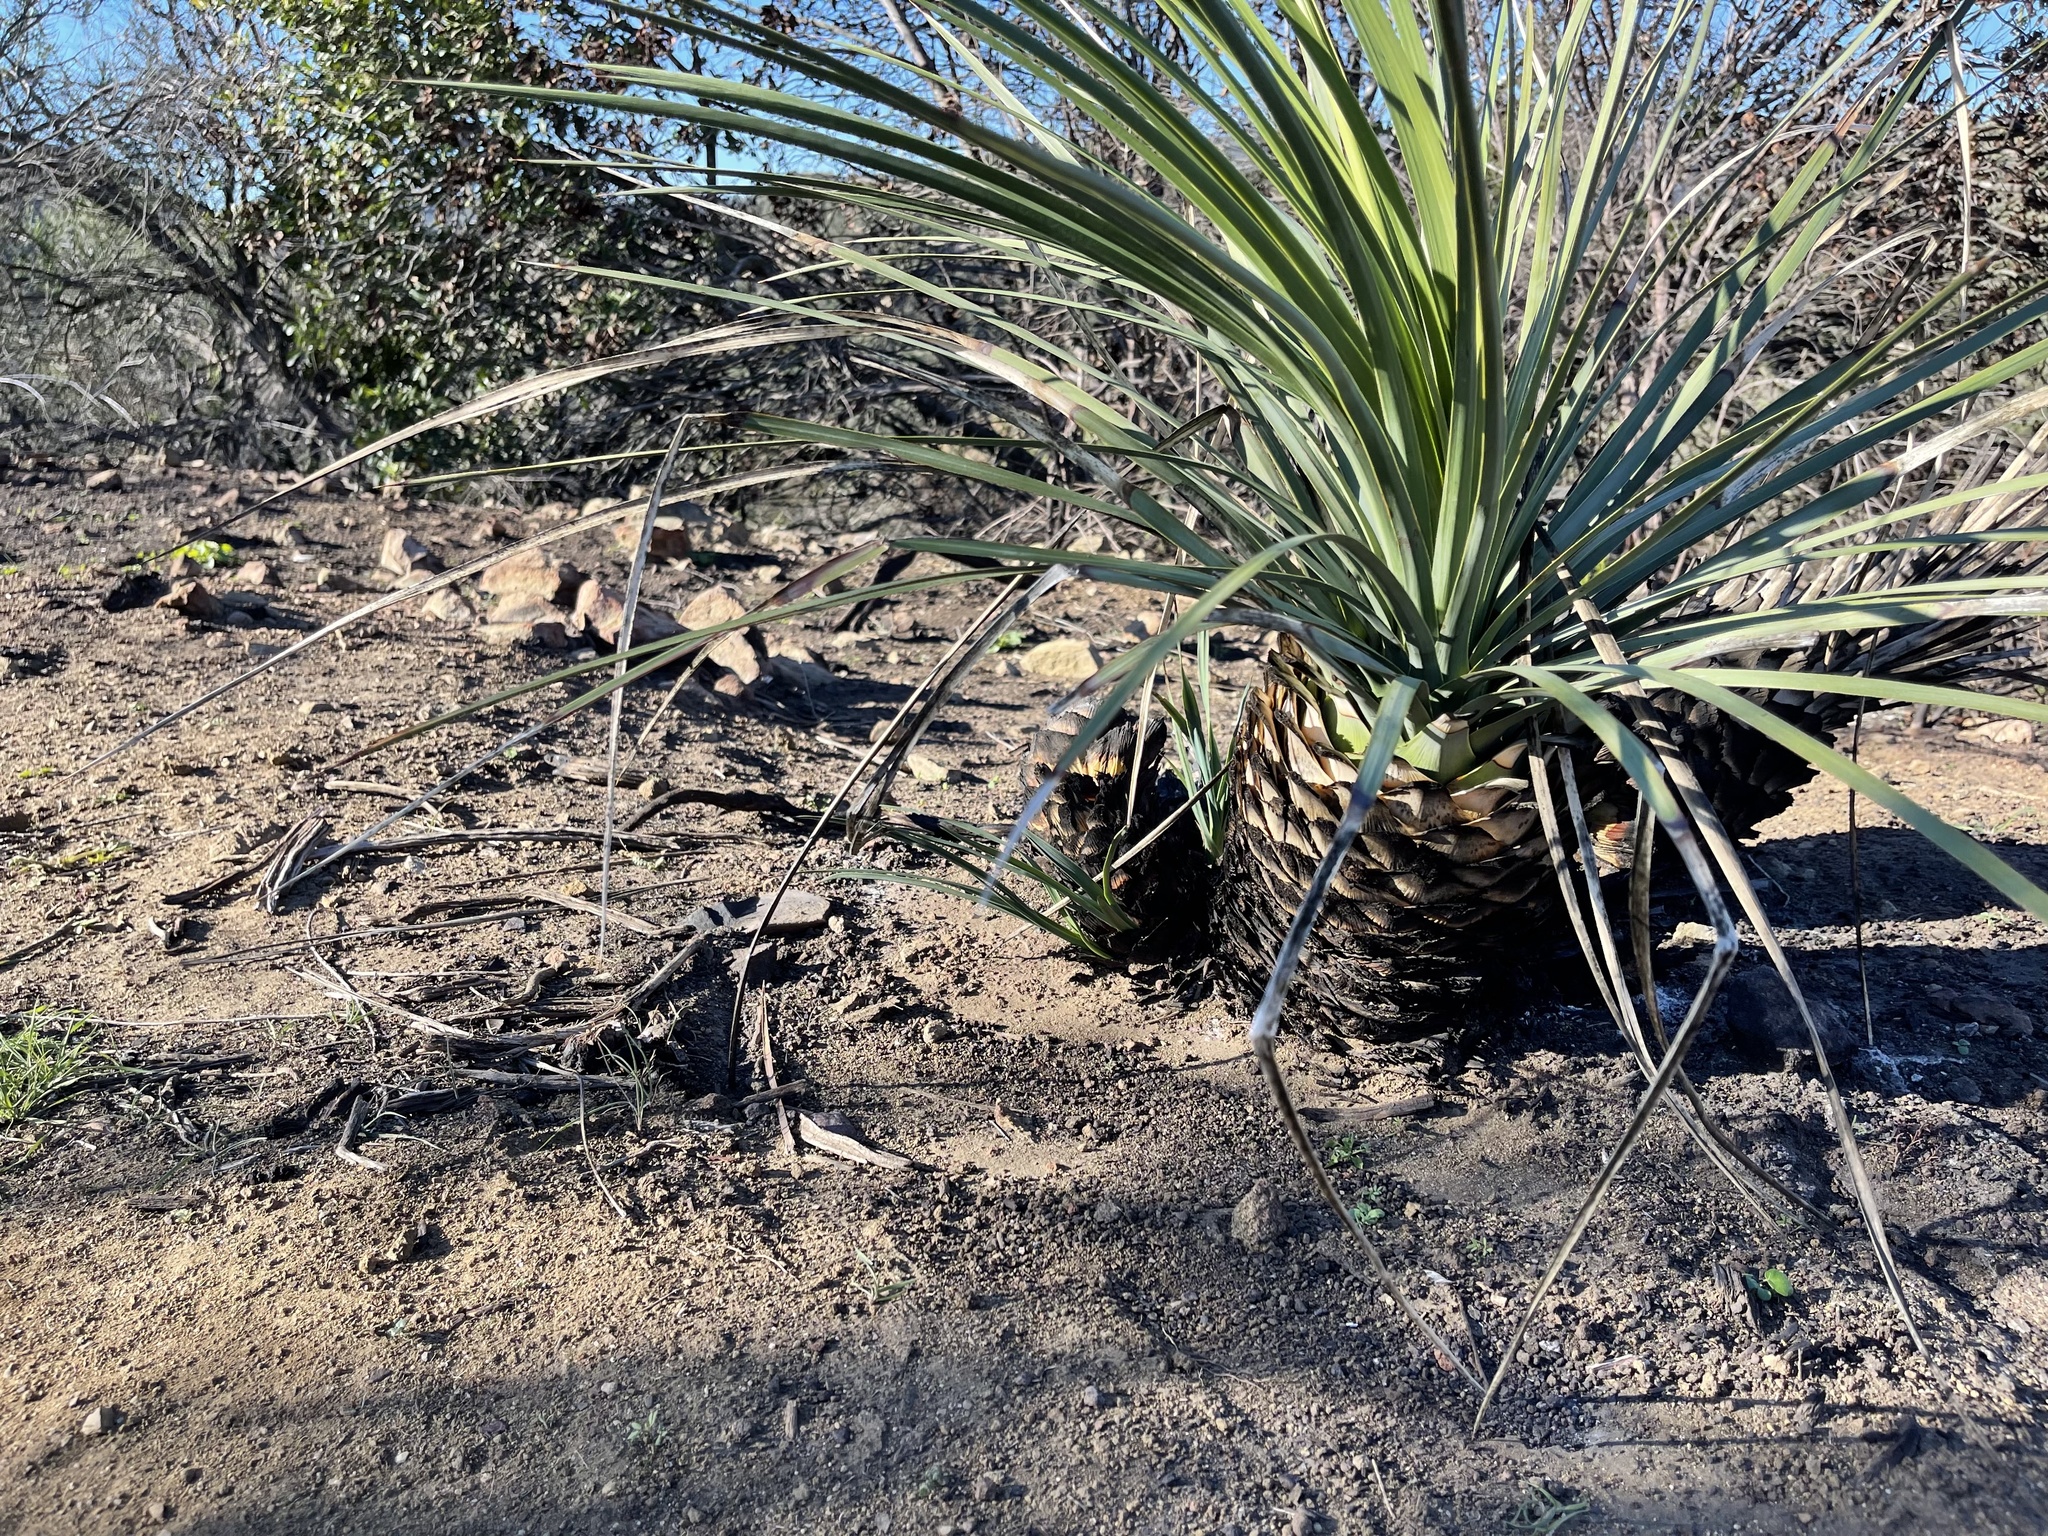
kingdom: Plantae
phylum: Tracheophyta
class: Liliopsida
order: Asparagales
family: Asparagaceae
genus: Hesperoyucca
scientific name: Hesperoyucca whipplei
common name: Our lord's-candle
